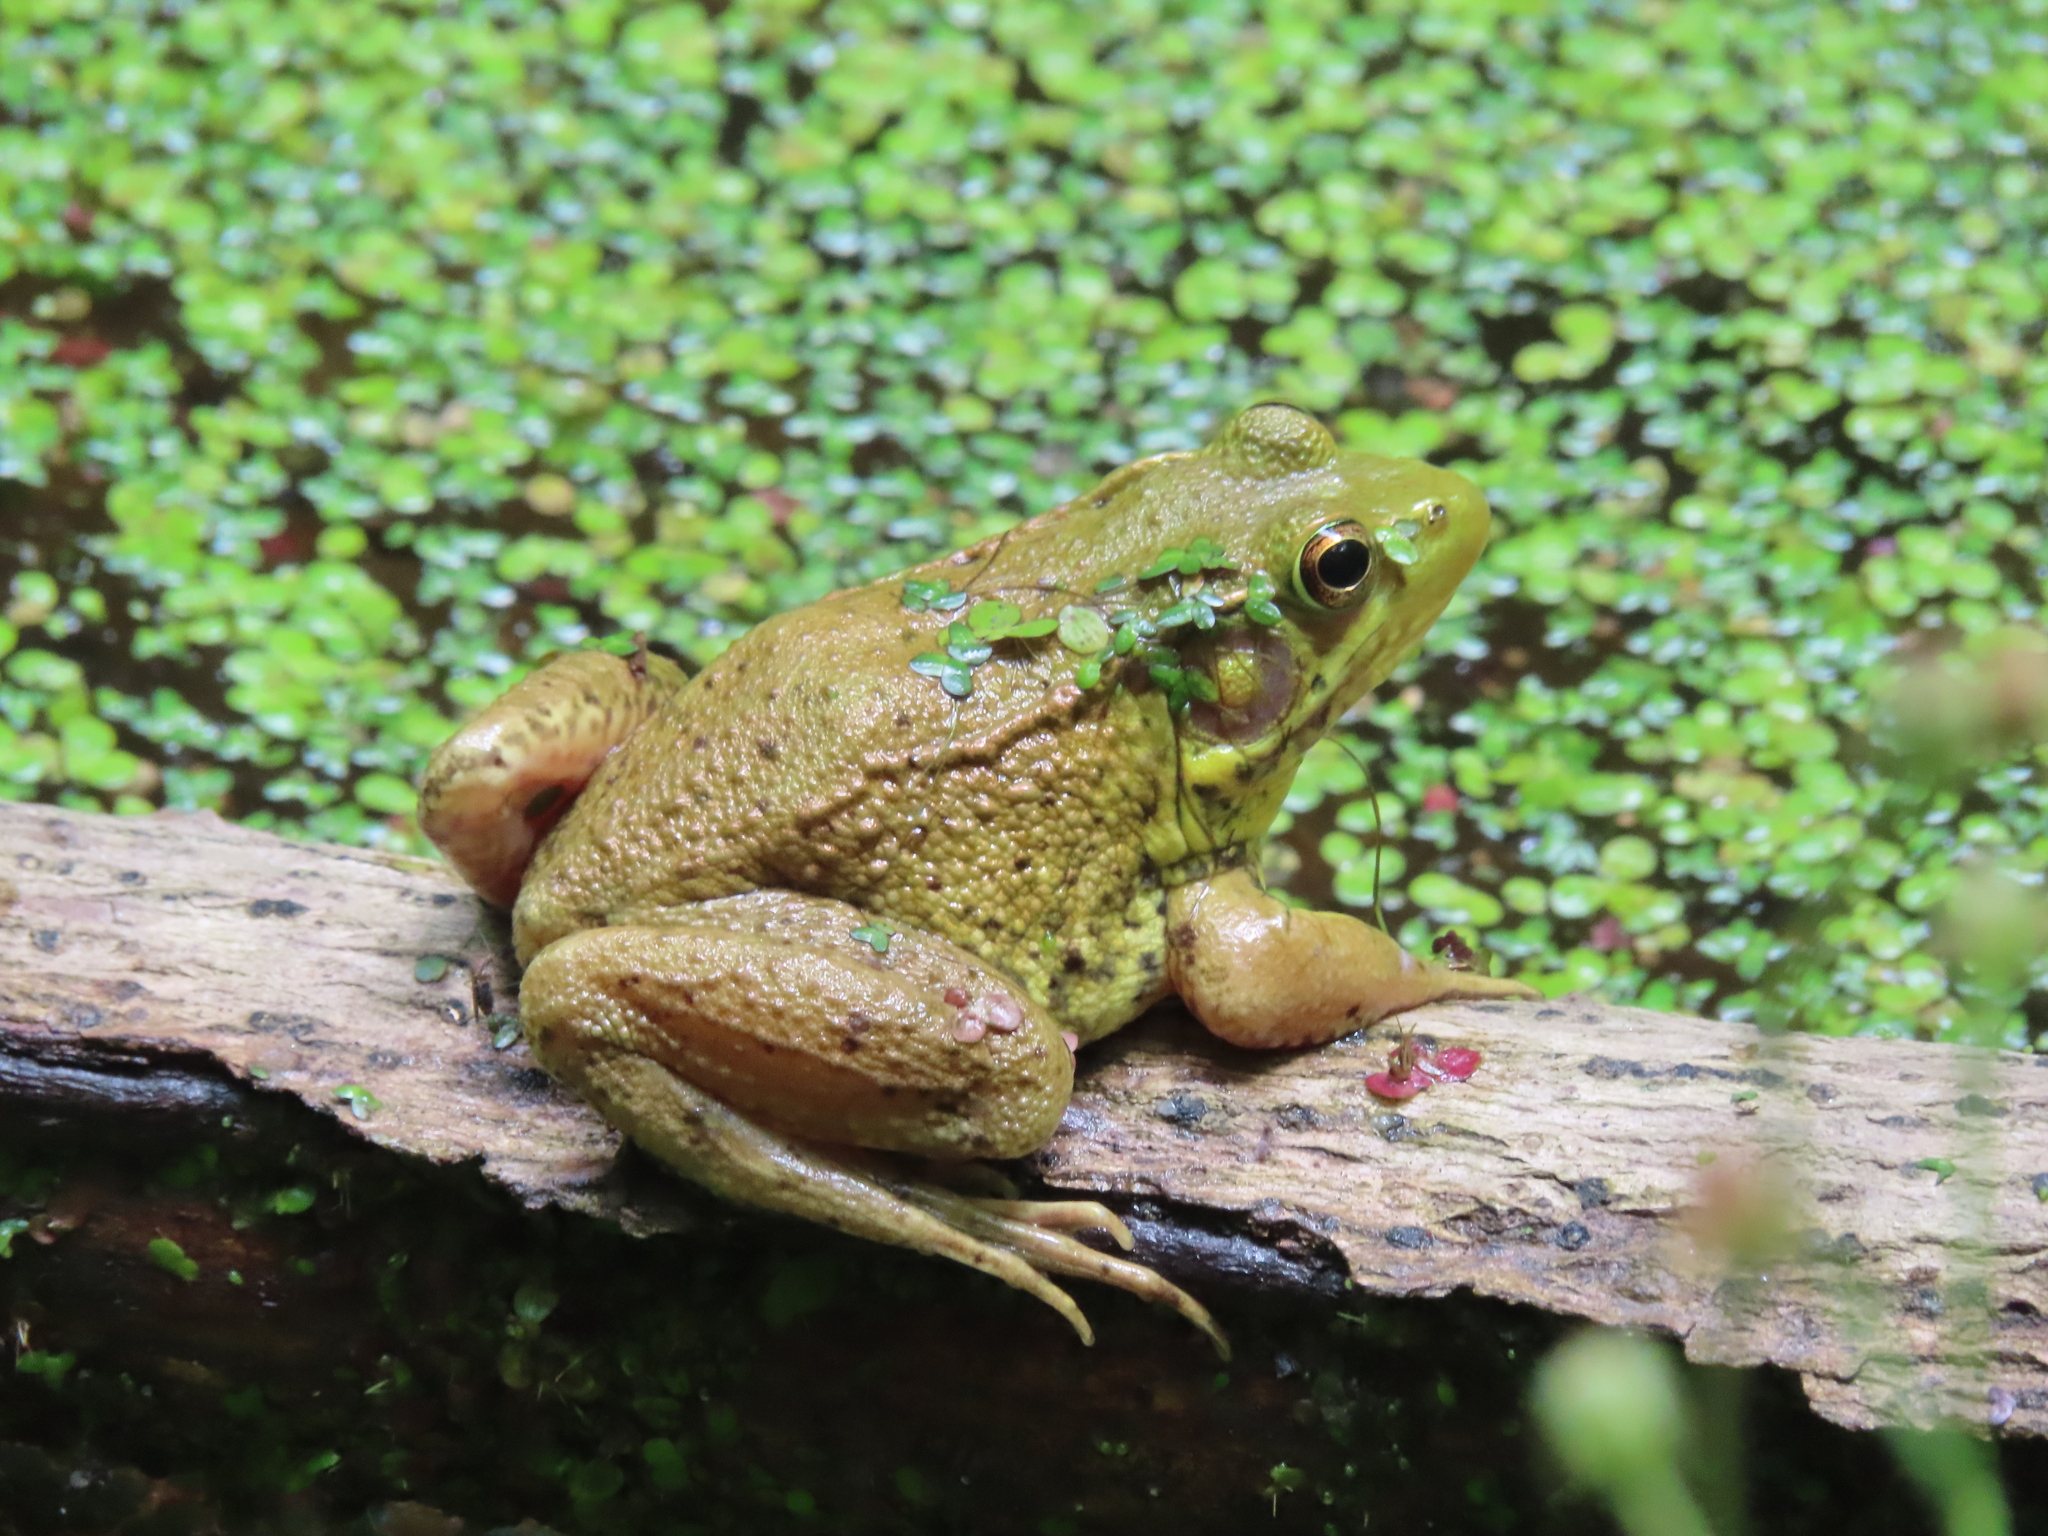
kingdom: Animalia
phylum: Chordata
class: Amphibia
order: Anura
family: Ranidae
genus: Lithobates
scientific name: Lithobates clamitans
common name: Green frog
